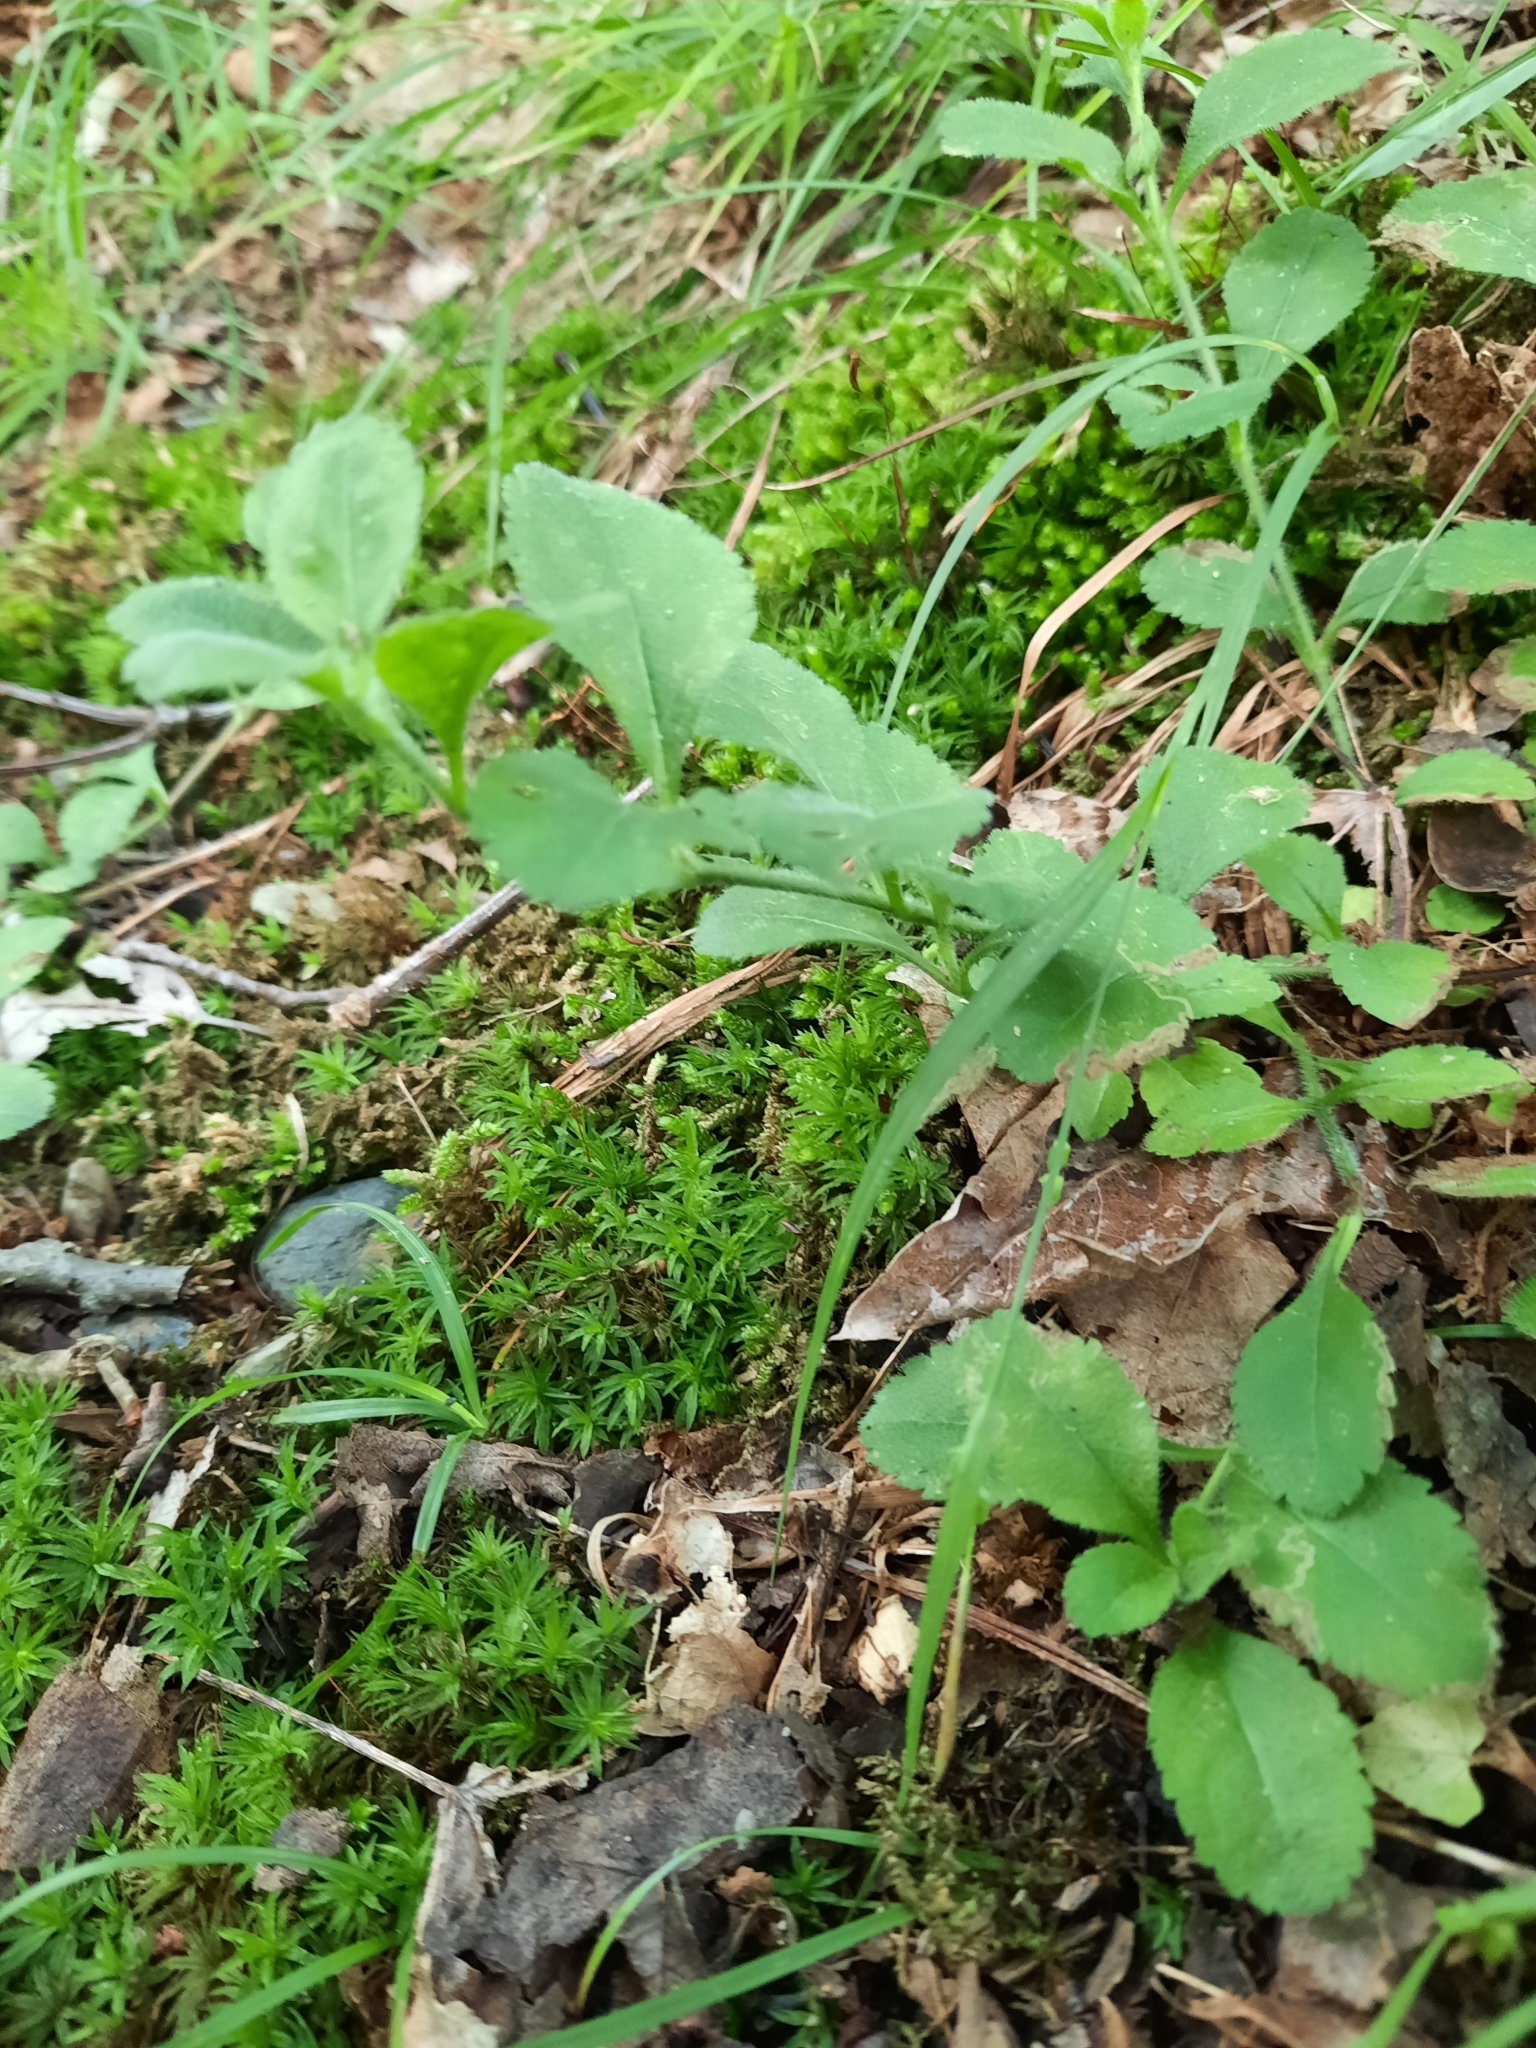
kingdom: Plantae
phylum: Tracheophyta
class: Magnoliopsida
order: Lamiales
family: Plantaginaceae
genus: Veronica
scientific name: Veronica officinalis
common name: Common speedwell
